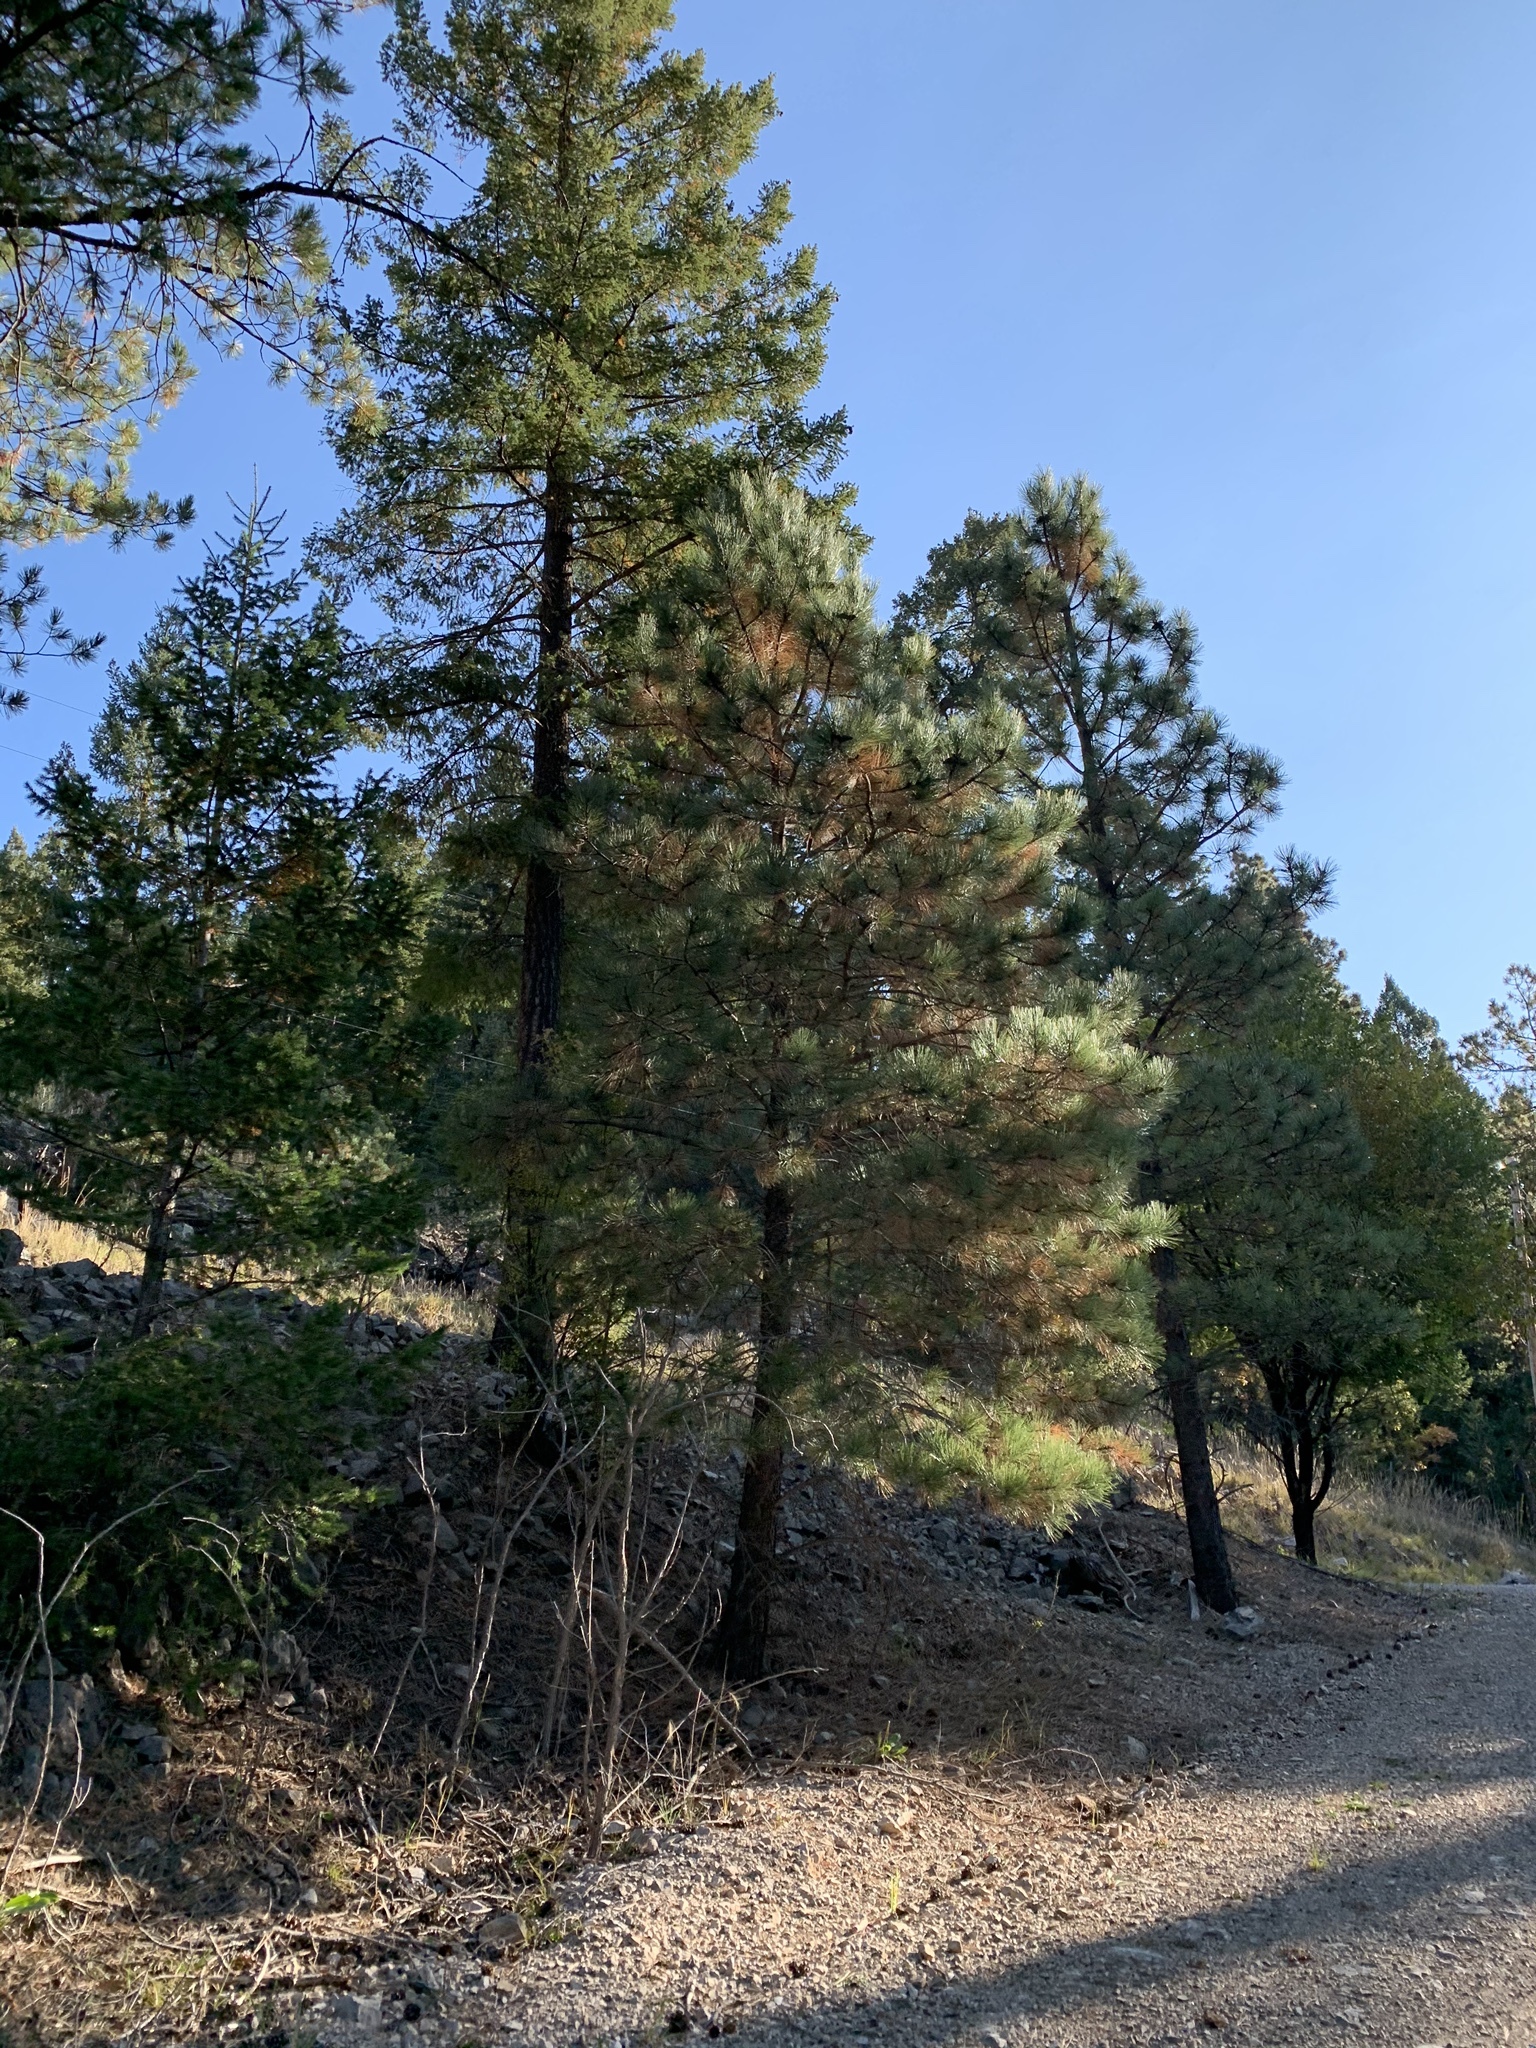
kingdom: Plantae
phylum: Tracheophyta
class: Pinopsida
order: Pinales
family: Pinaceae
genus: Pinus
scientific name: Pinus ponderosa
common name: Western yellow-pine
